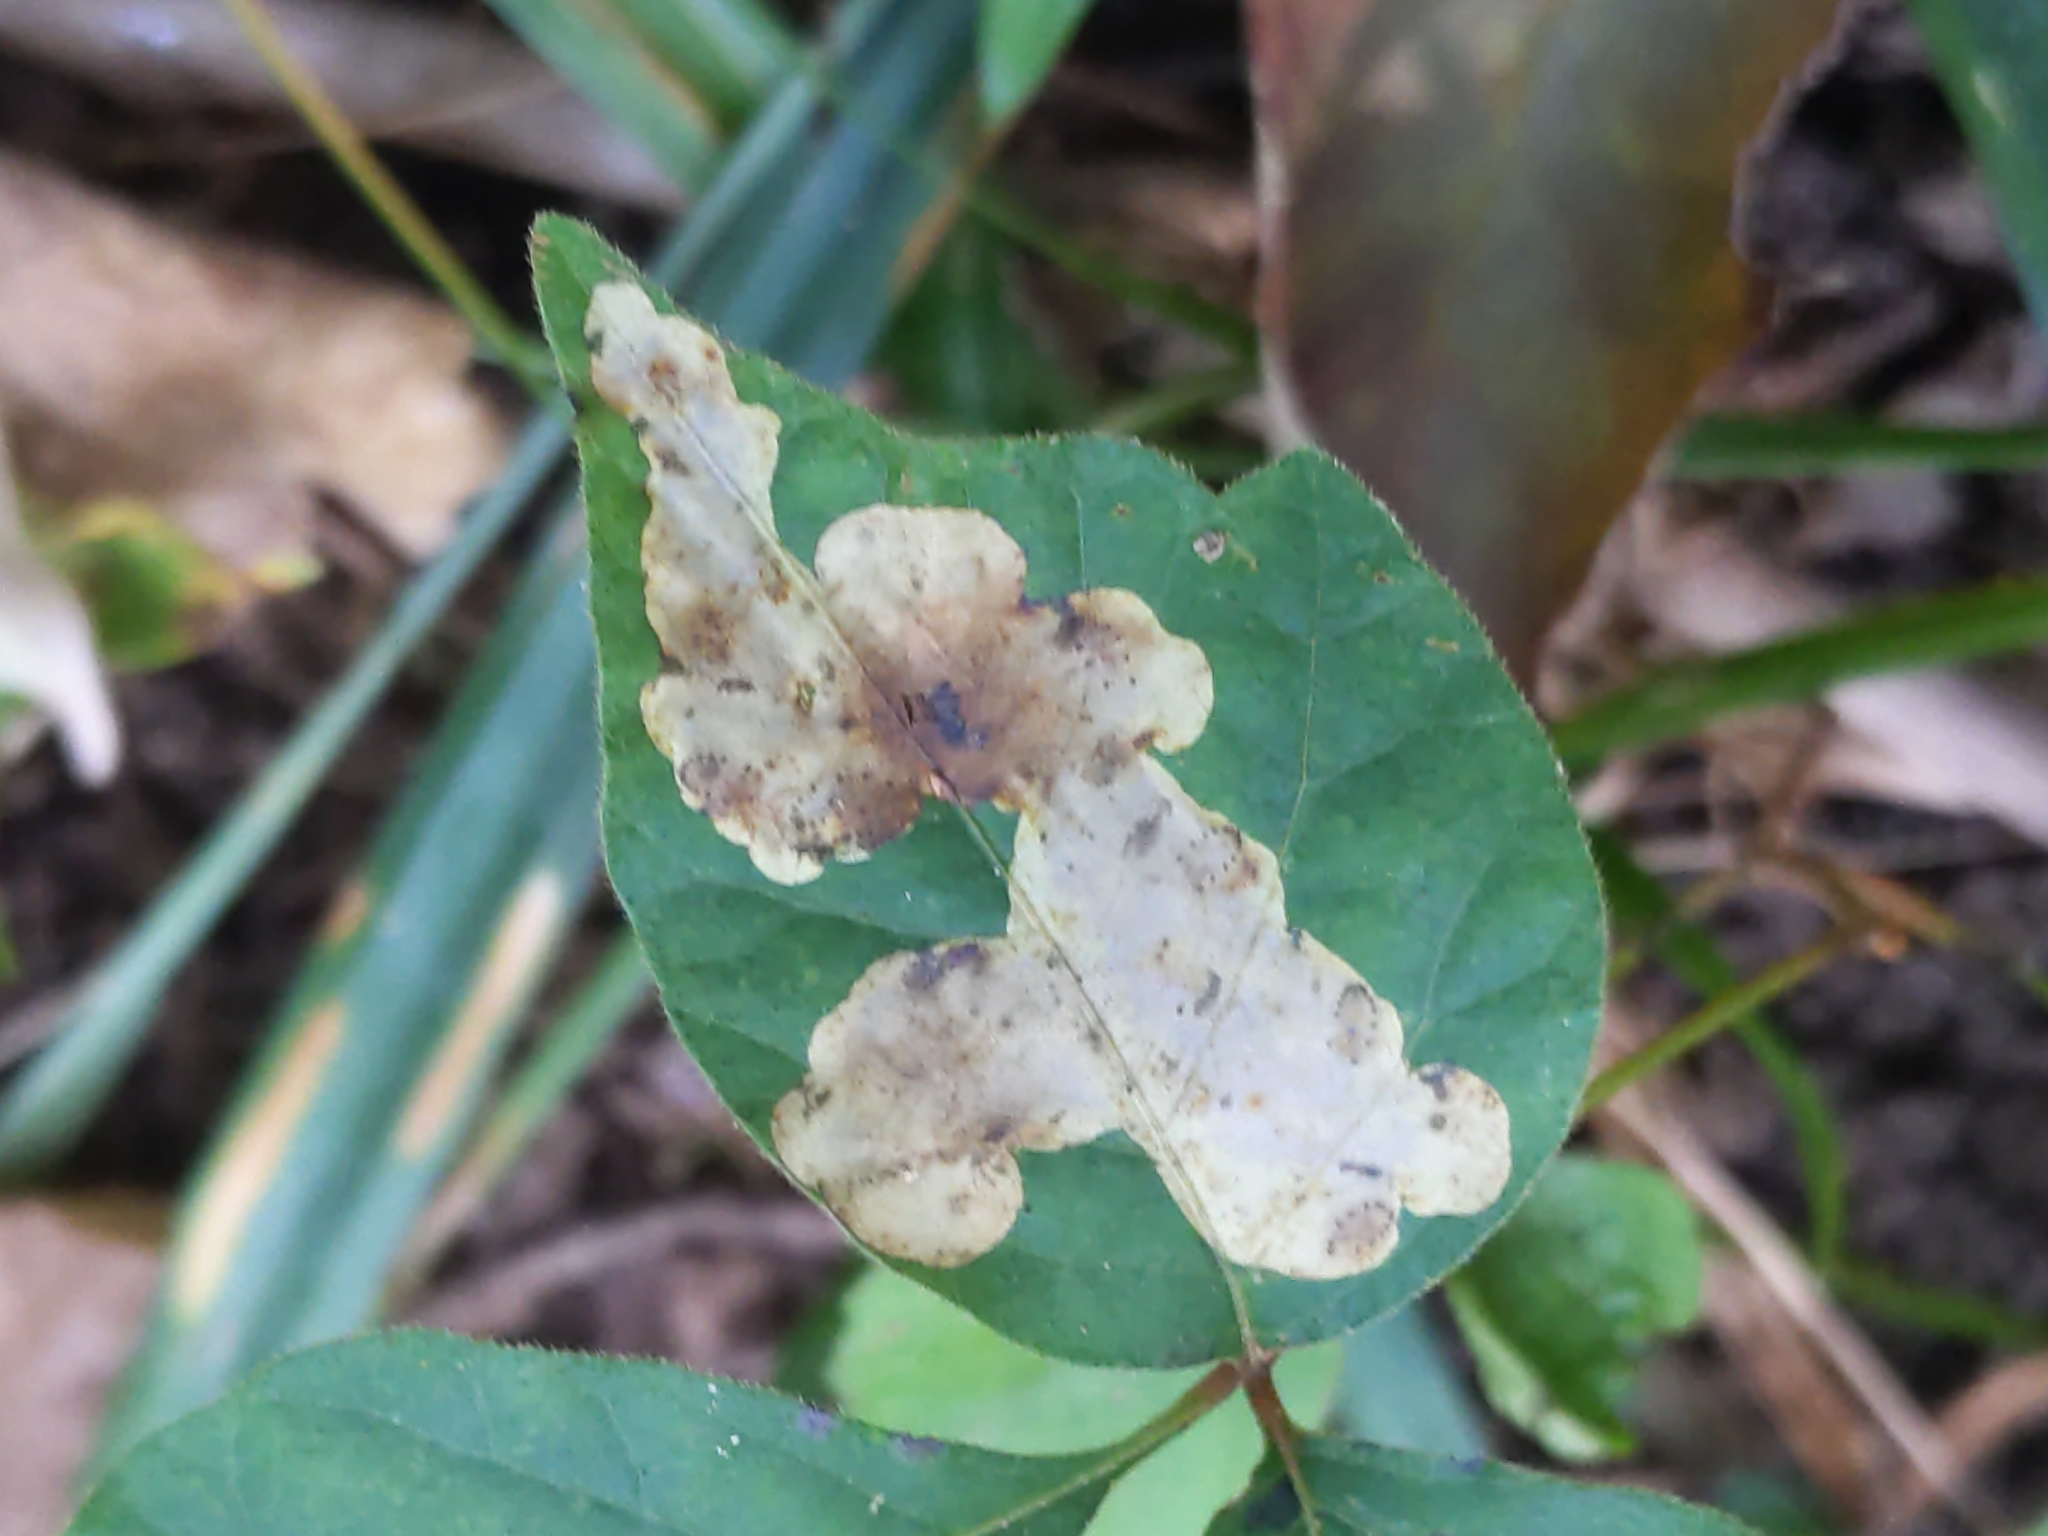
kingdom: Animalia
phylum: Arthropoda
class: Insecta
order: Lepidoptera
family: Gracillariidae
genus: Cameraria
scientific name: Cameraria guttifinitella
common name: Poison ivy leaf-miner moth
